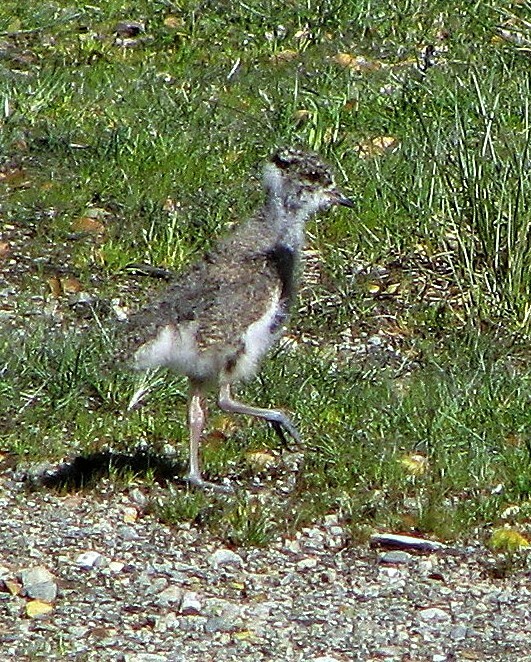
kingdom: Animalia
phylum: Chordata
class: Aves
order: Charadriiformes
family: Charadriidae
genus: Vanellus
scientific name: Vanellus chilensis
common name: Southern lapwing
